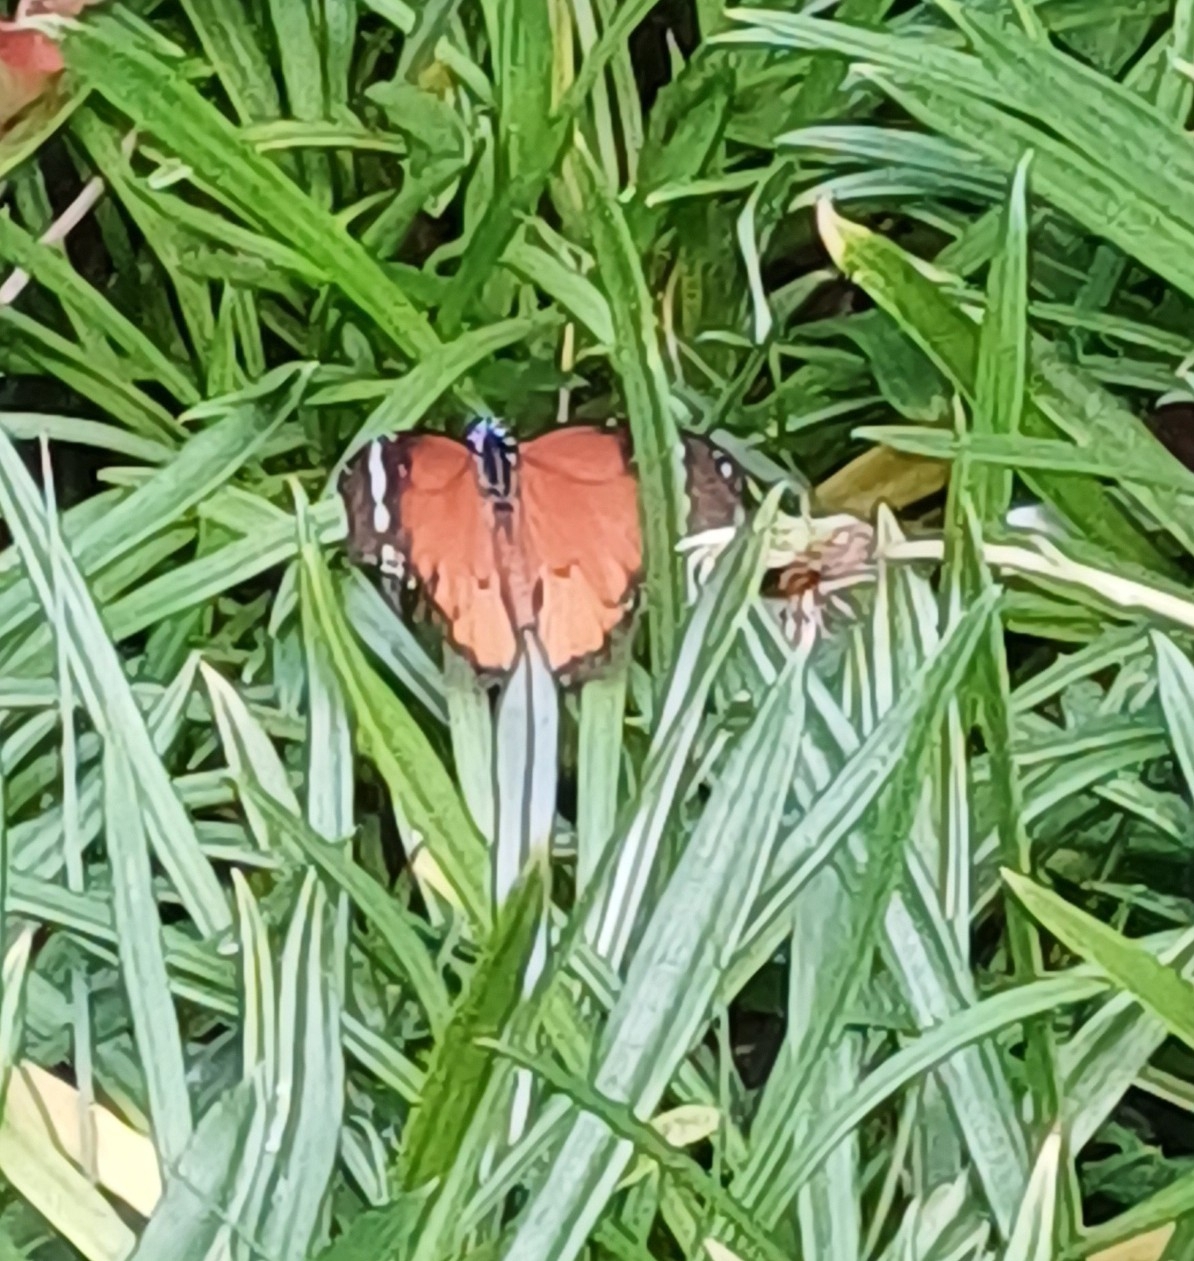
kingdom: Animalia
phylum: Arthropoda
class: Insecta
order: Lepidoptera
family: Nymphalidae
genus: Danaus
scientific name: Danaus chrysippus
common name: Plain tiger
